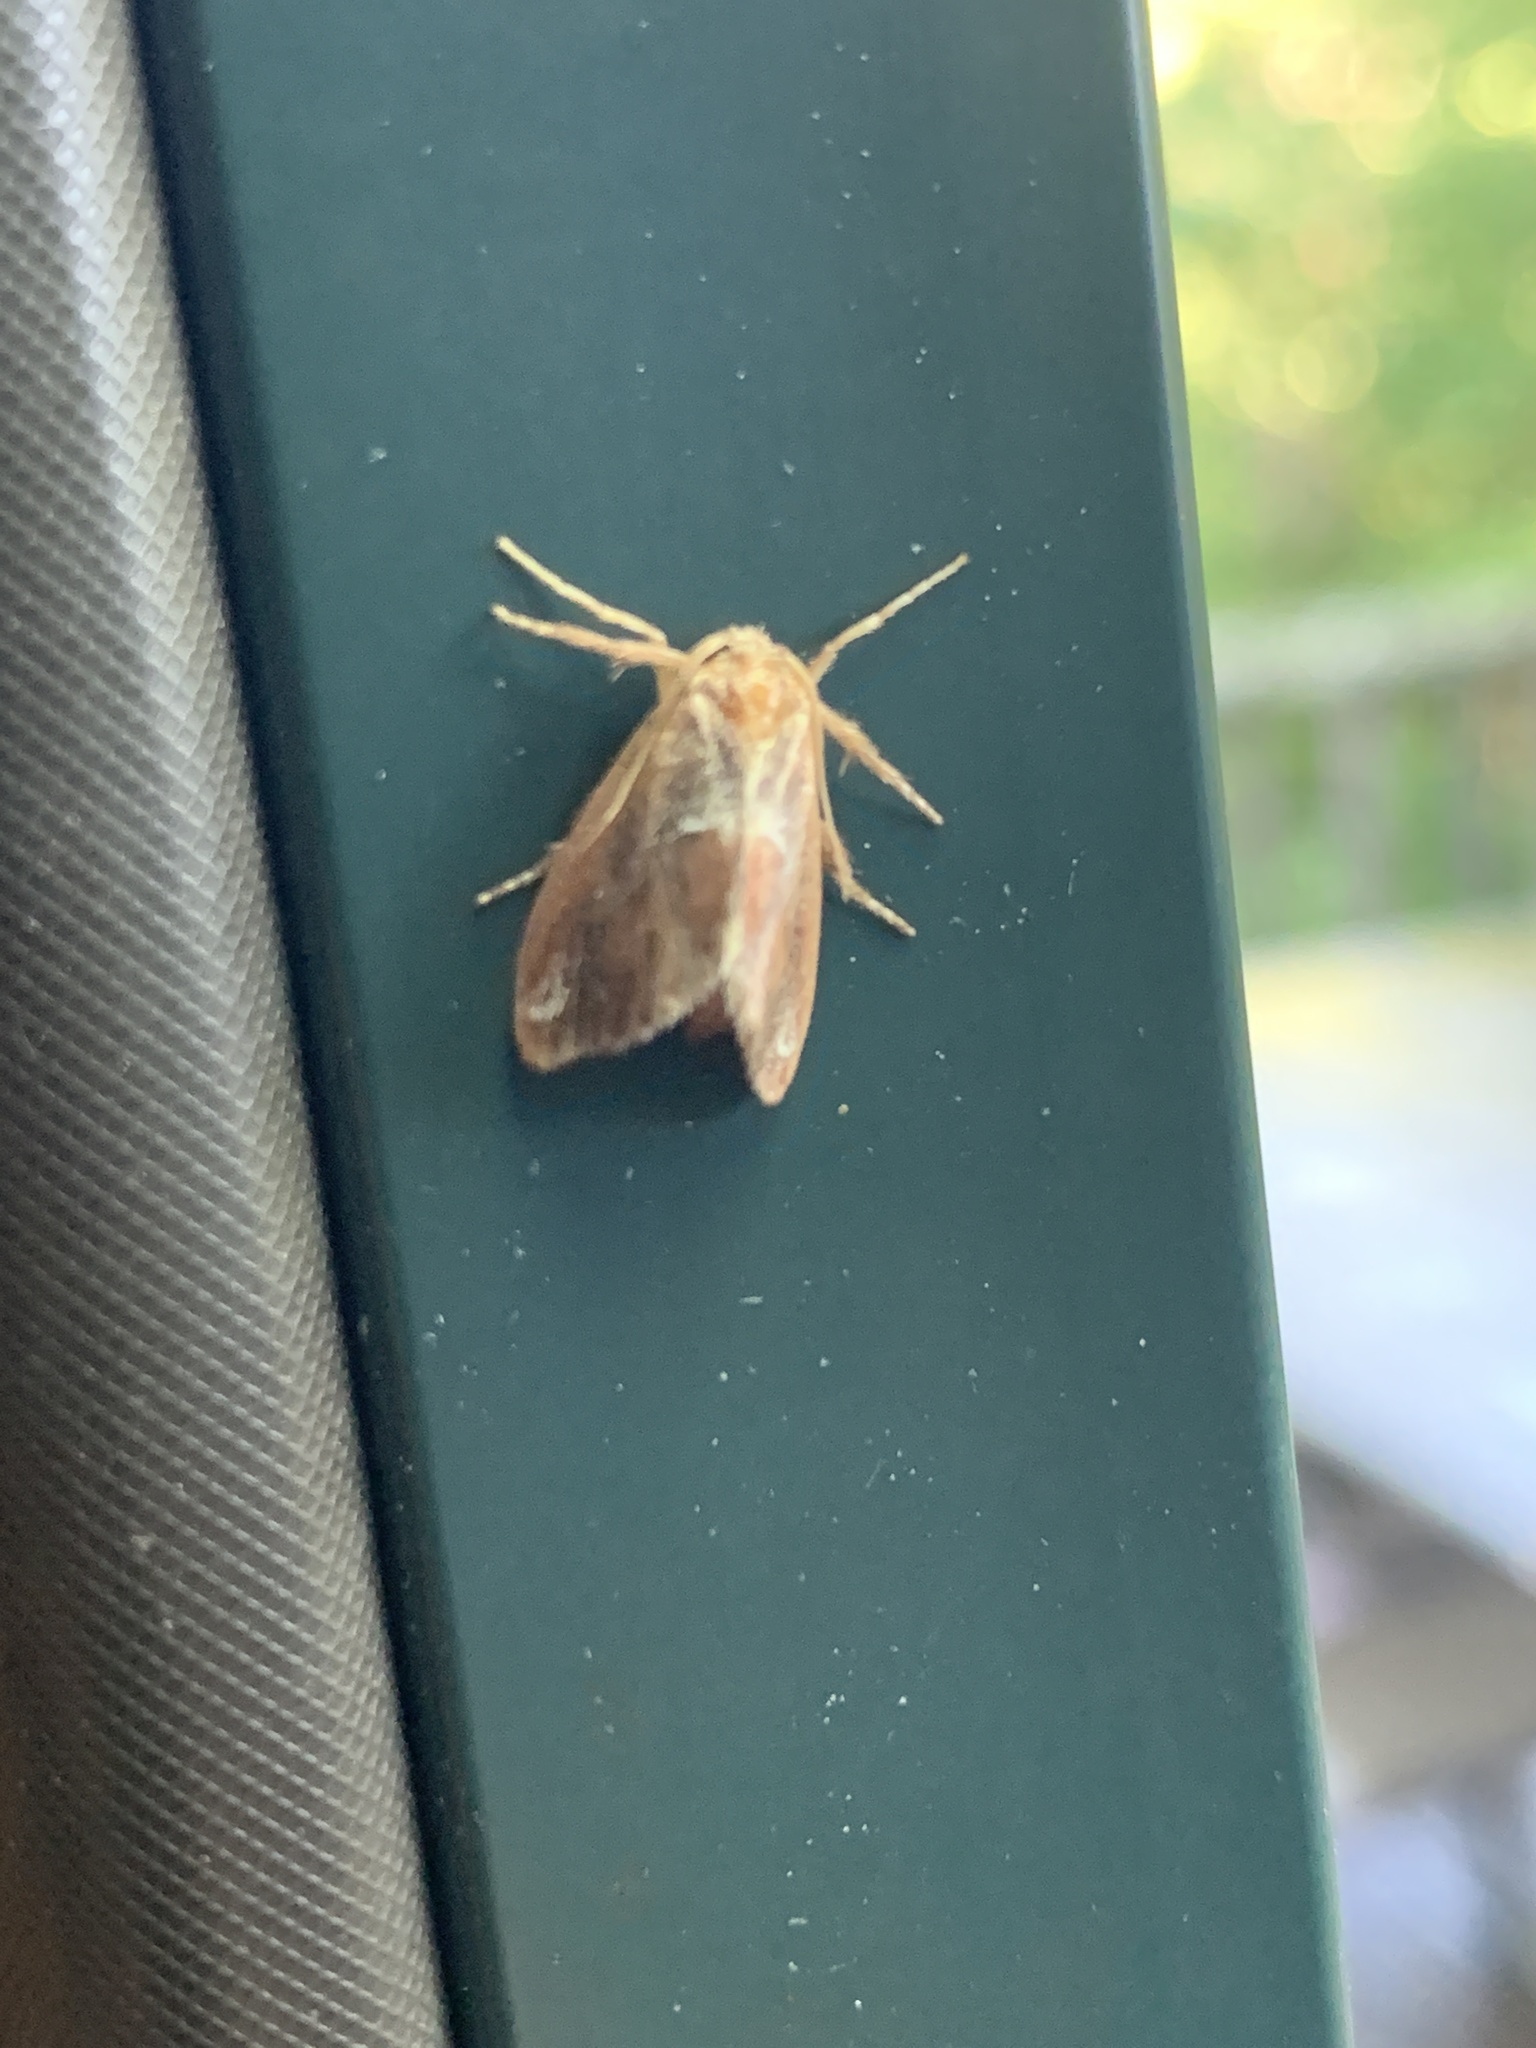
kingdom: Animalia
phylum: Arthropoda
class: Insecta
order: Lepidoptera
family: Limacodidae
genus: Adoneta
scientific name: Adoneta spinuloides
